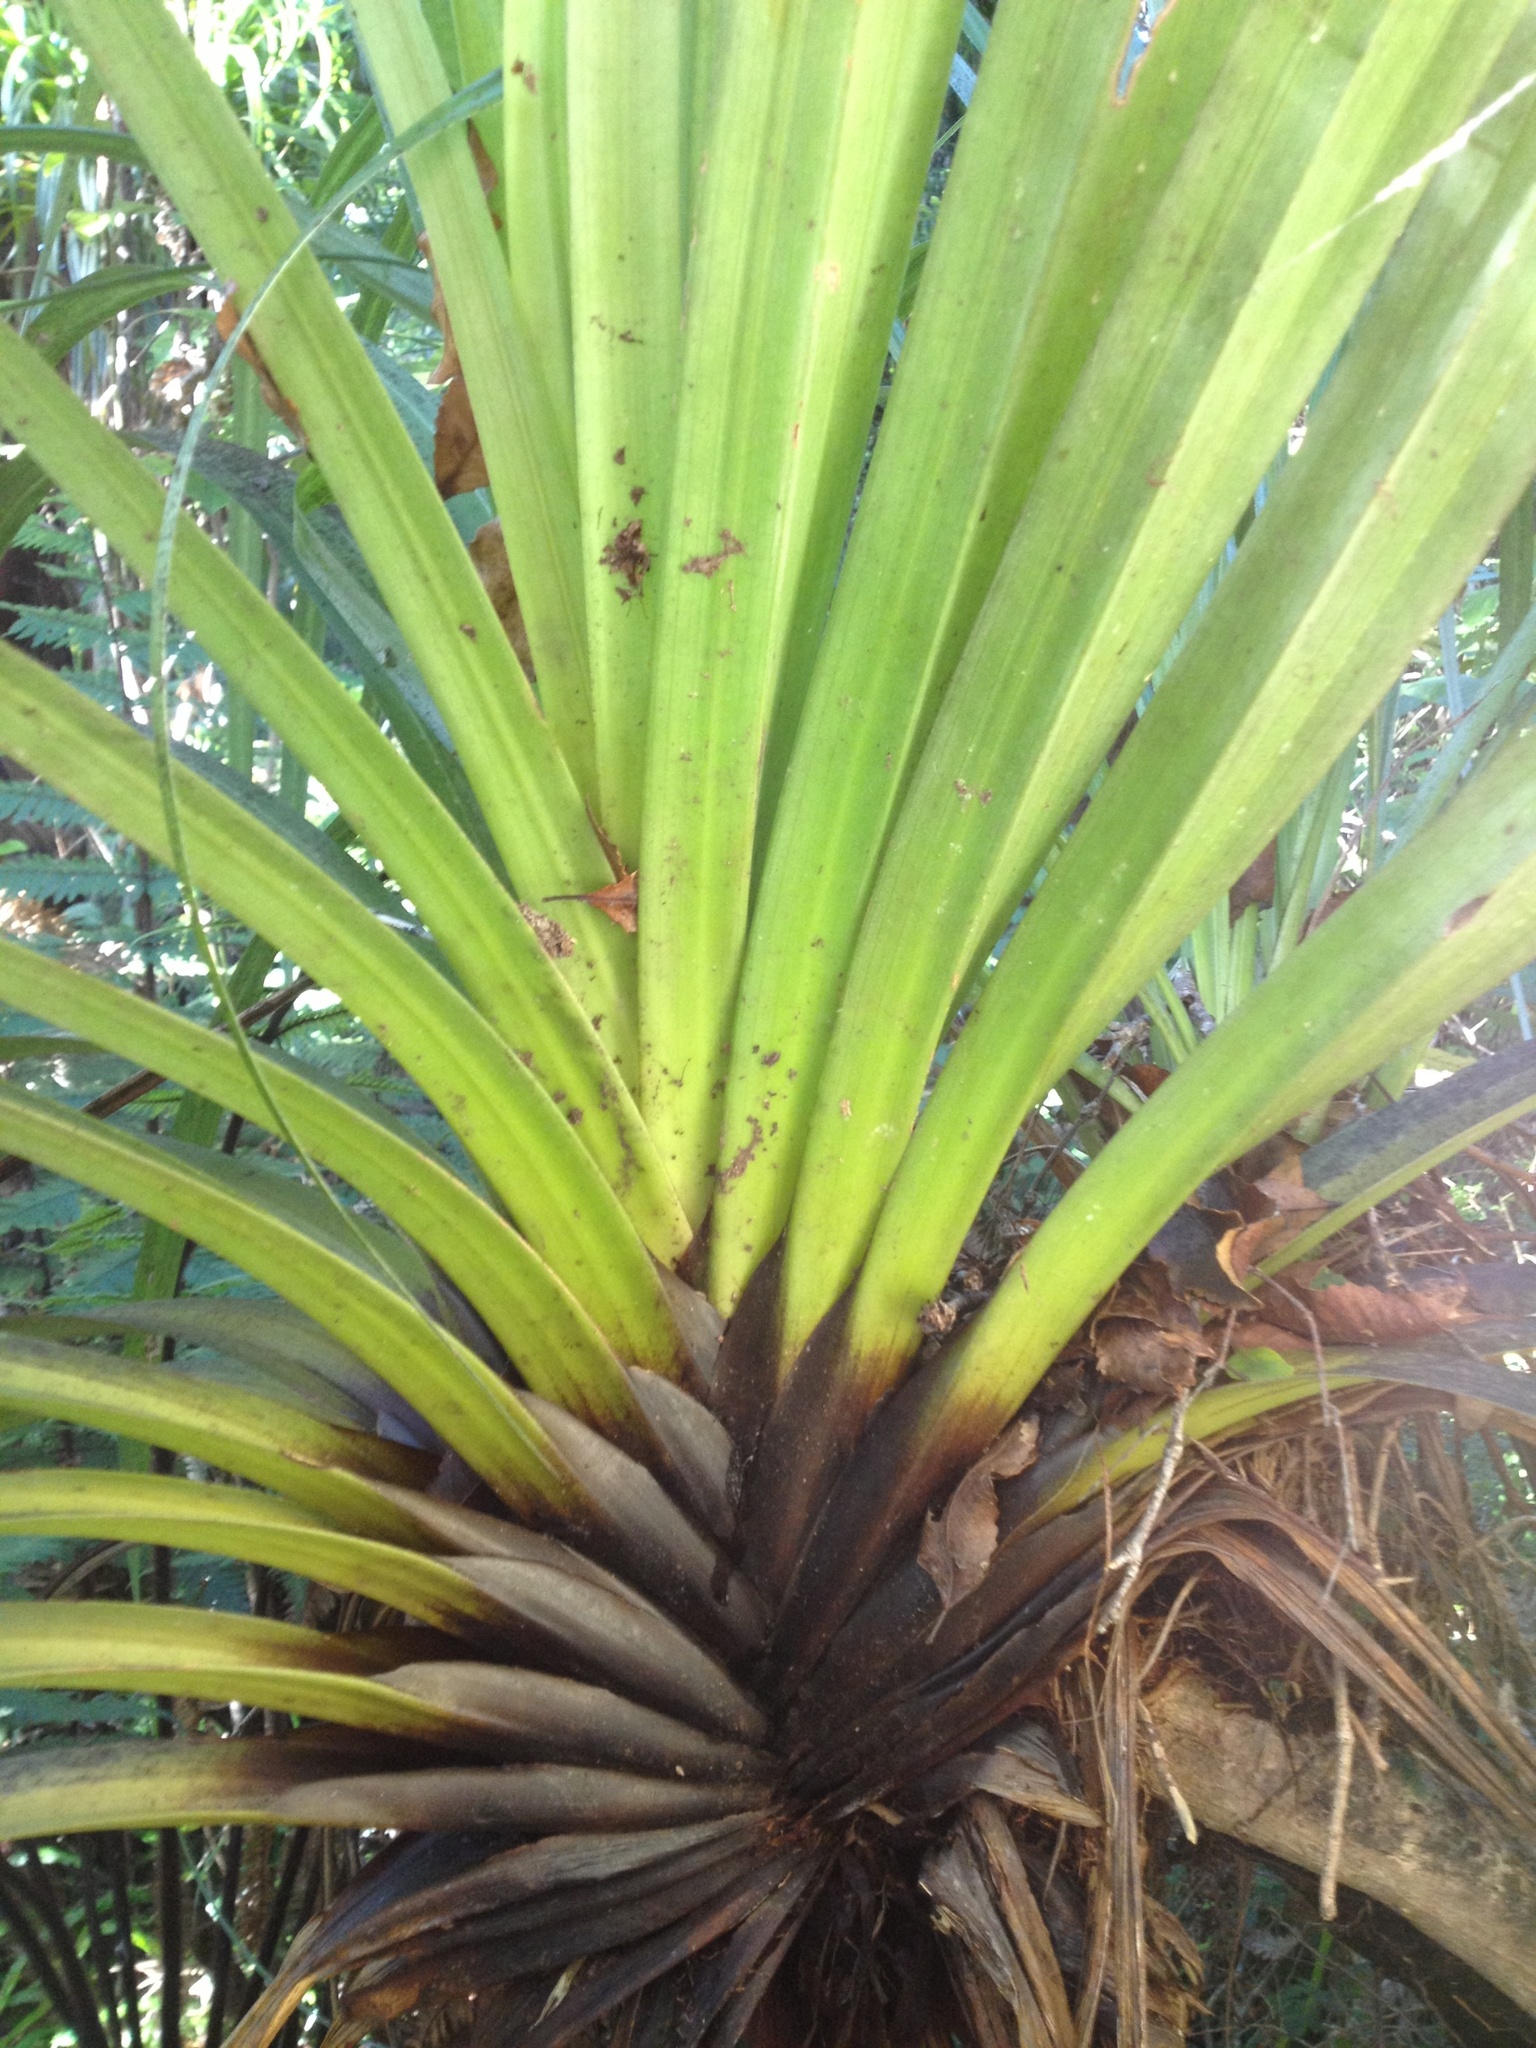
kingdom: Plantae
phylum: Tracheophyta
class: Liliopsida
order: Asparagales
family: Asteliaceae
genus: Astelia
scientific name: Astelia hastata
